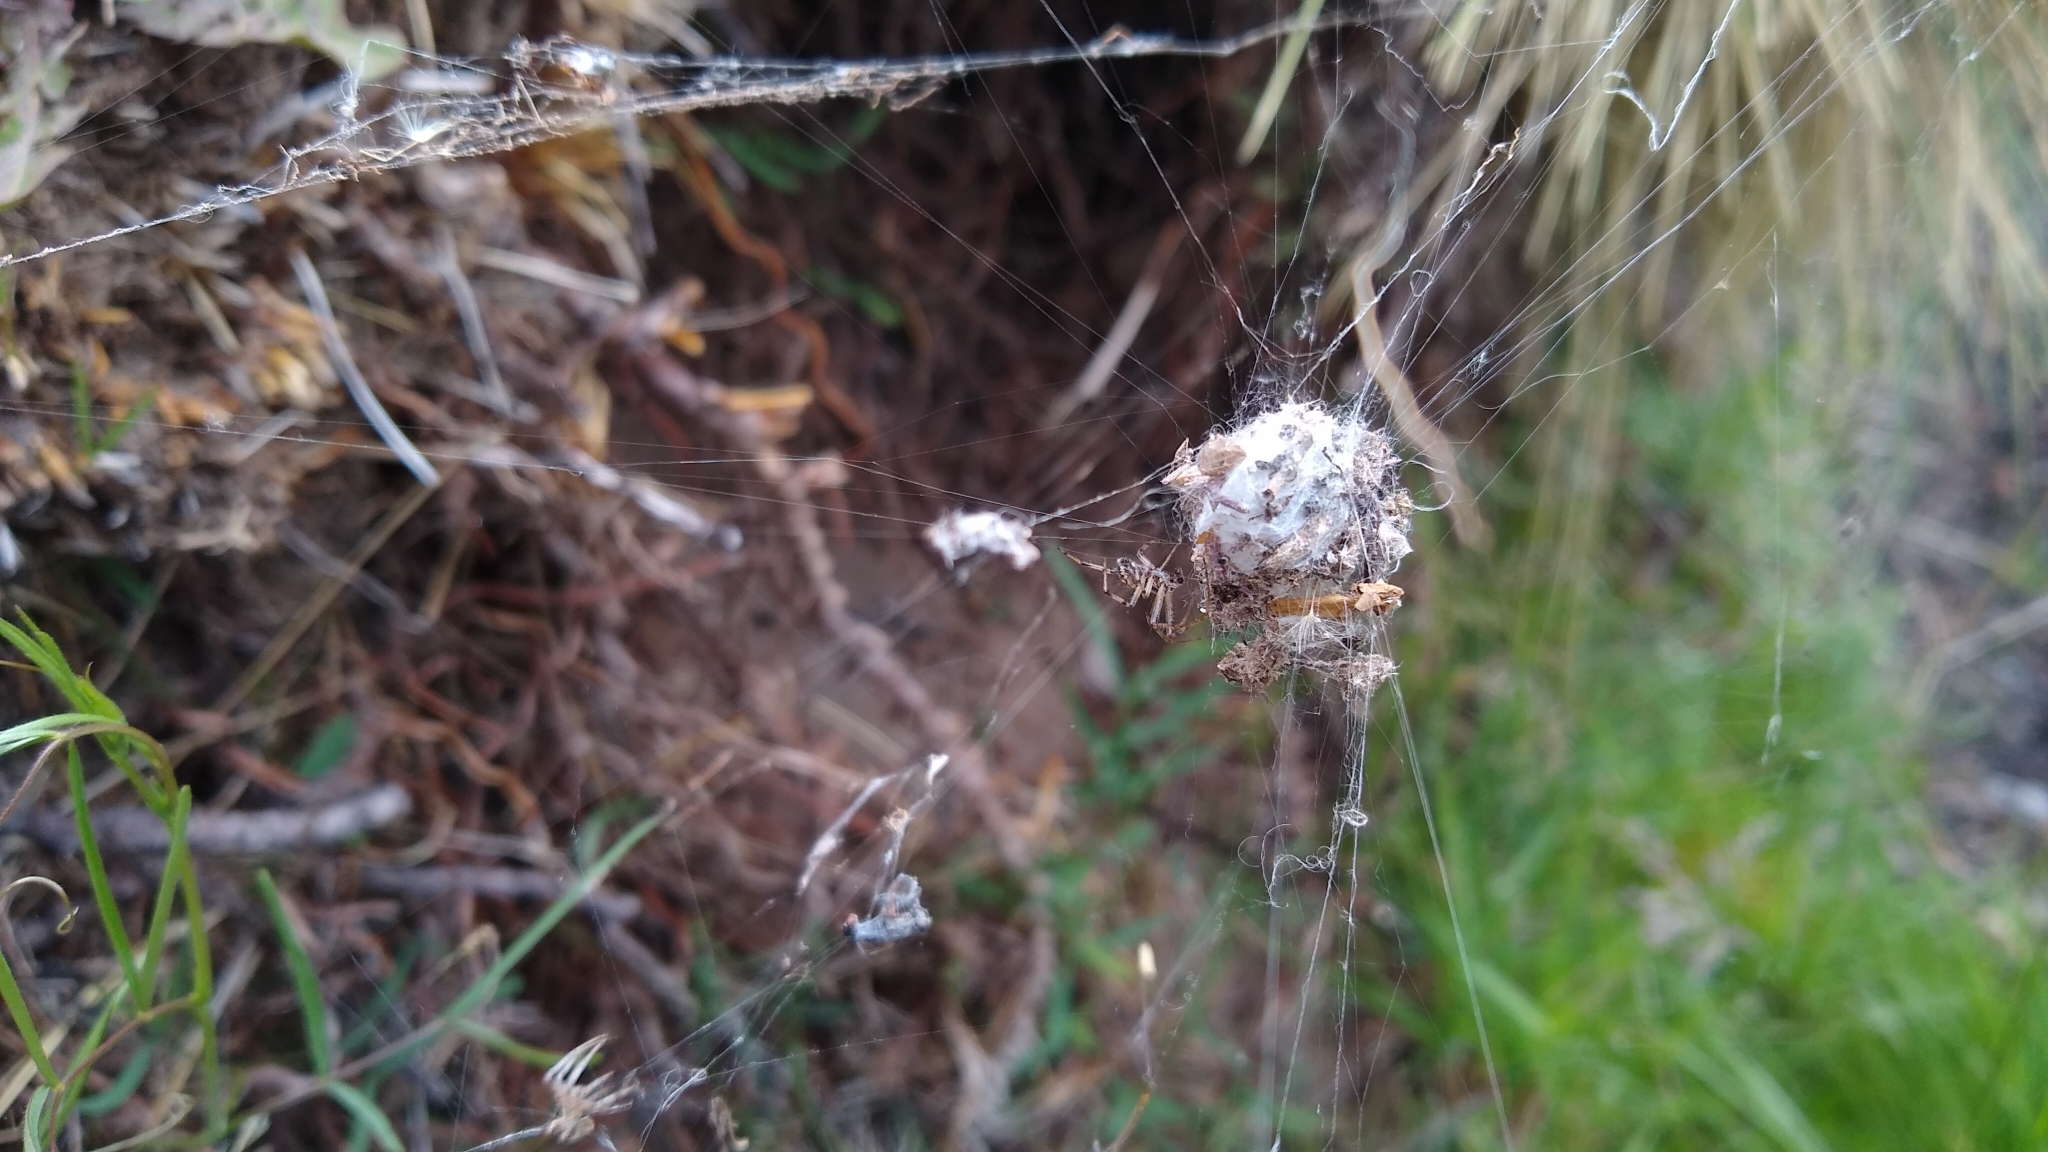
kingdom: Animalia
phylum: Arthropoda
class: Arachnida
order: Araneae
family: Araneidae
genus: Metepeira
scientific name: Metepeira
